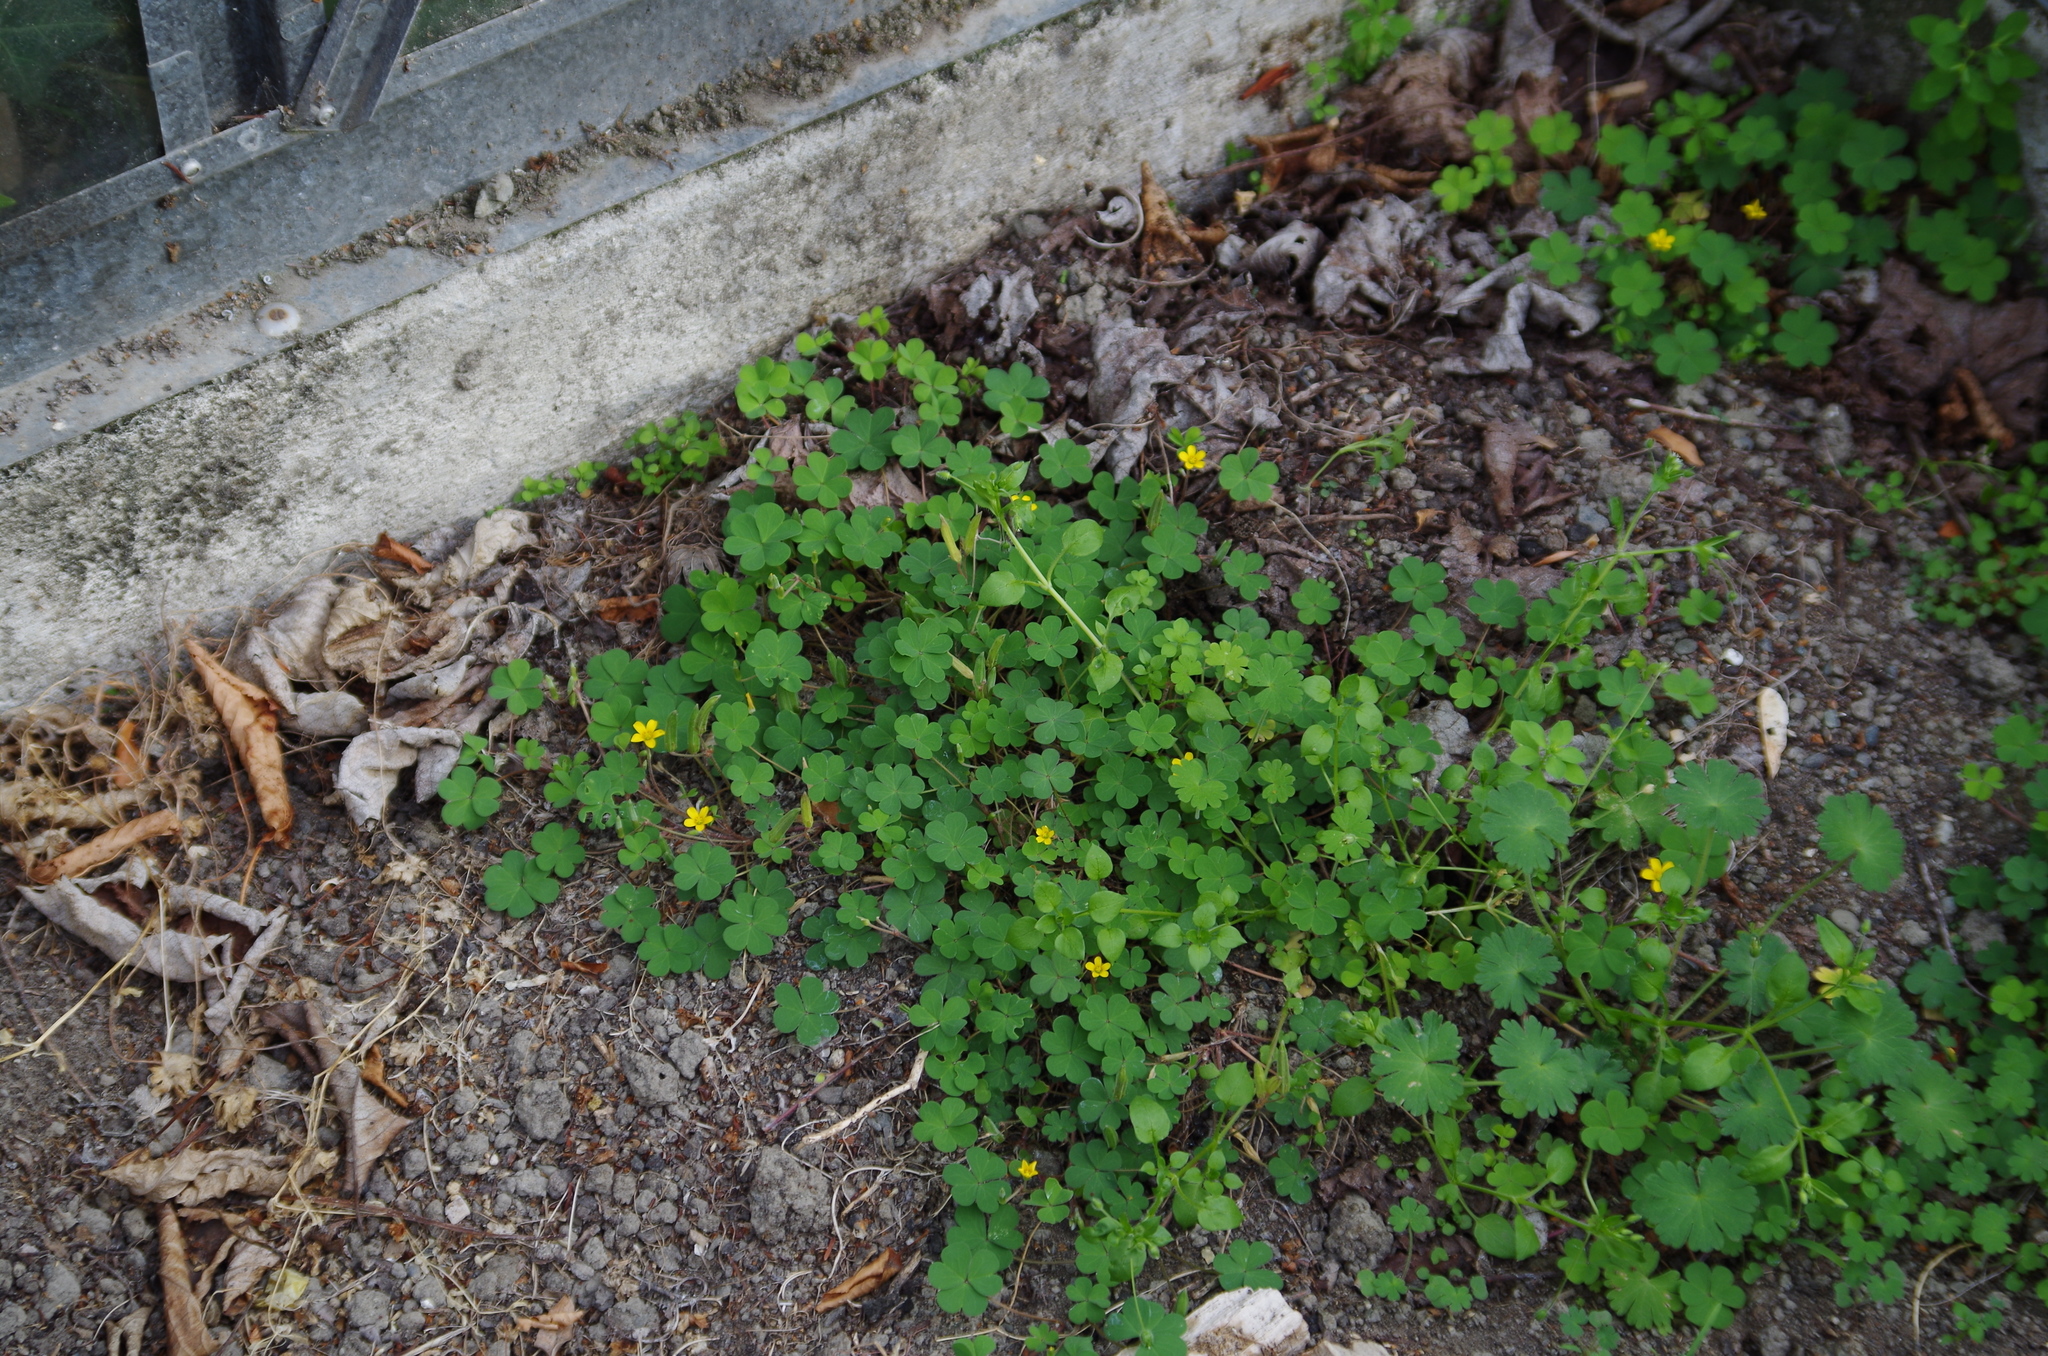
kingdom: Plantae
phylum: Tracheophyta
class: Magnoliopsida
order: Oxalidales
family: Oxalidaceae
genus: Oxalis
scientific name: Oxalis corniculata
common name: Procumbent yellow-sorrel
